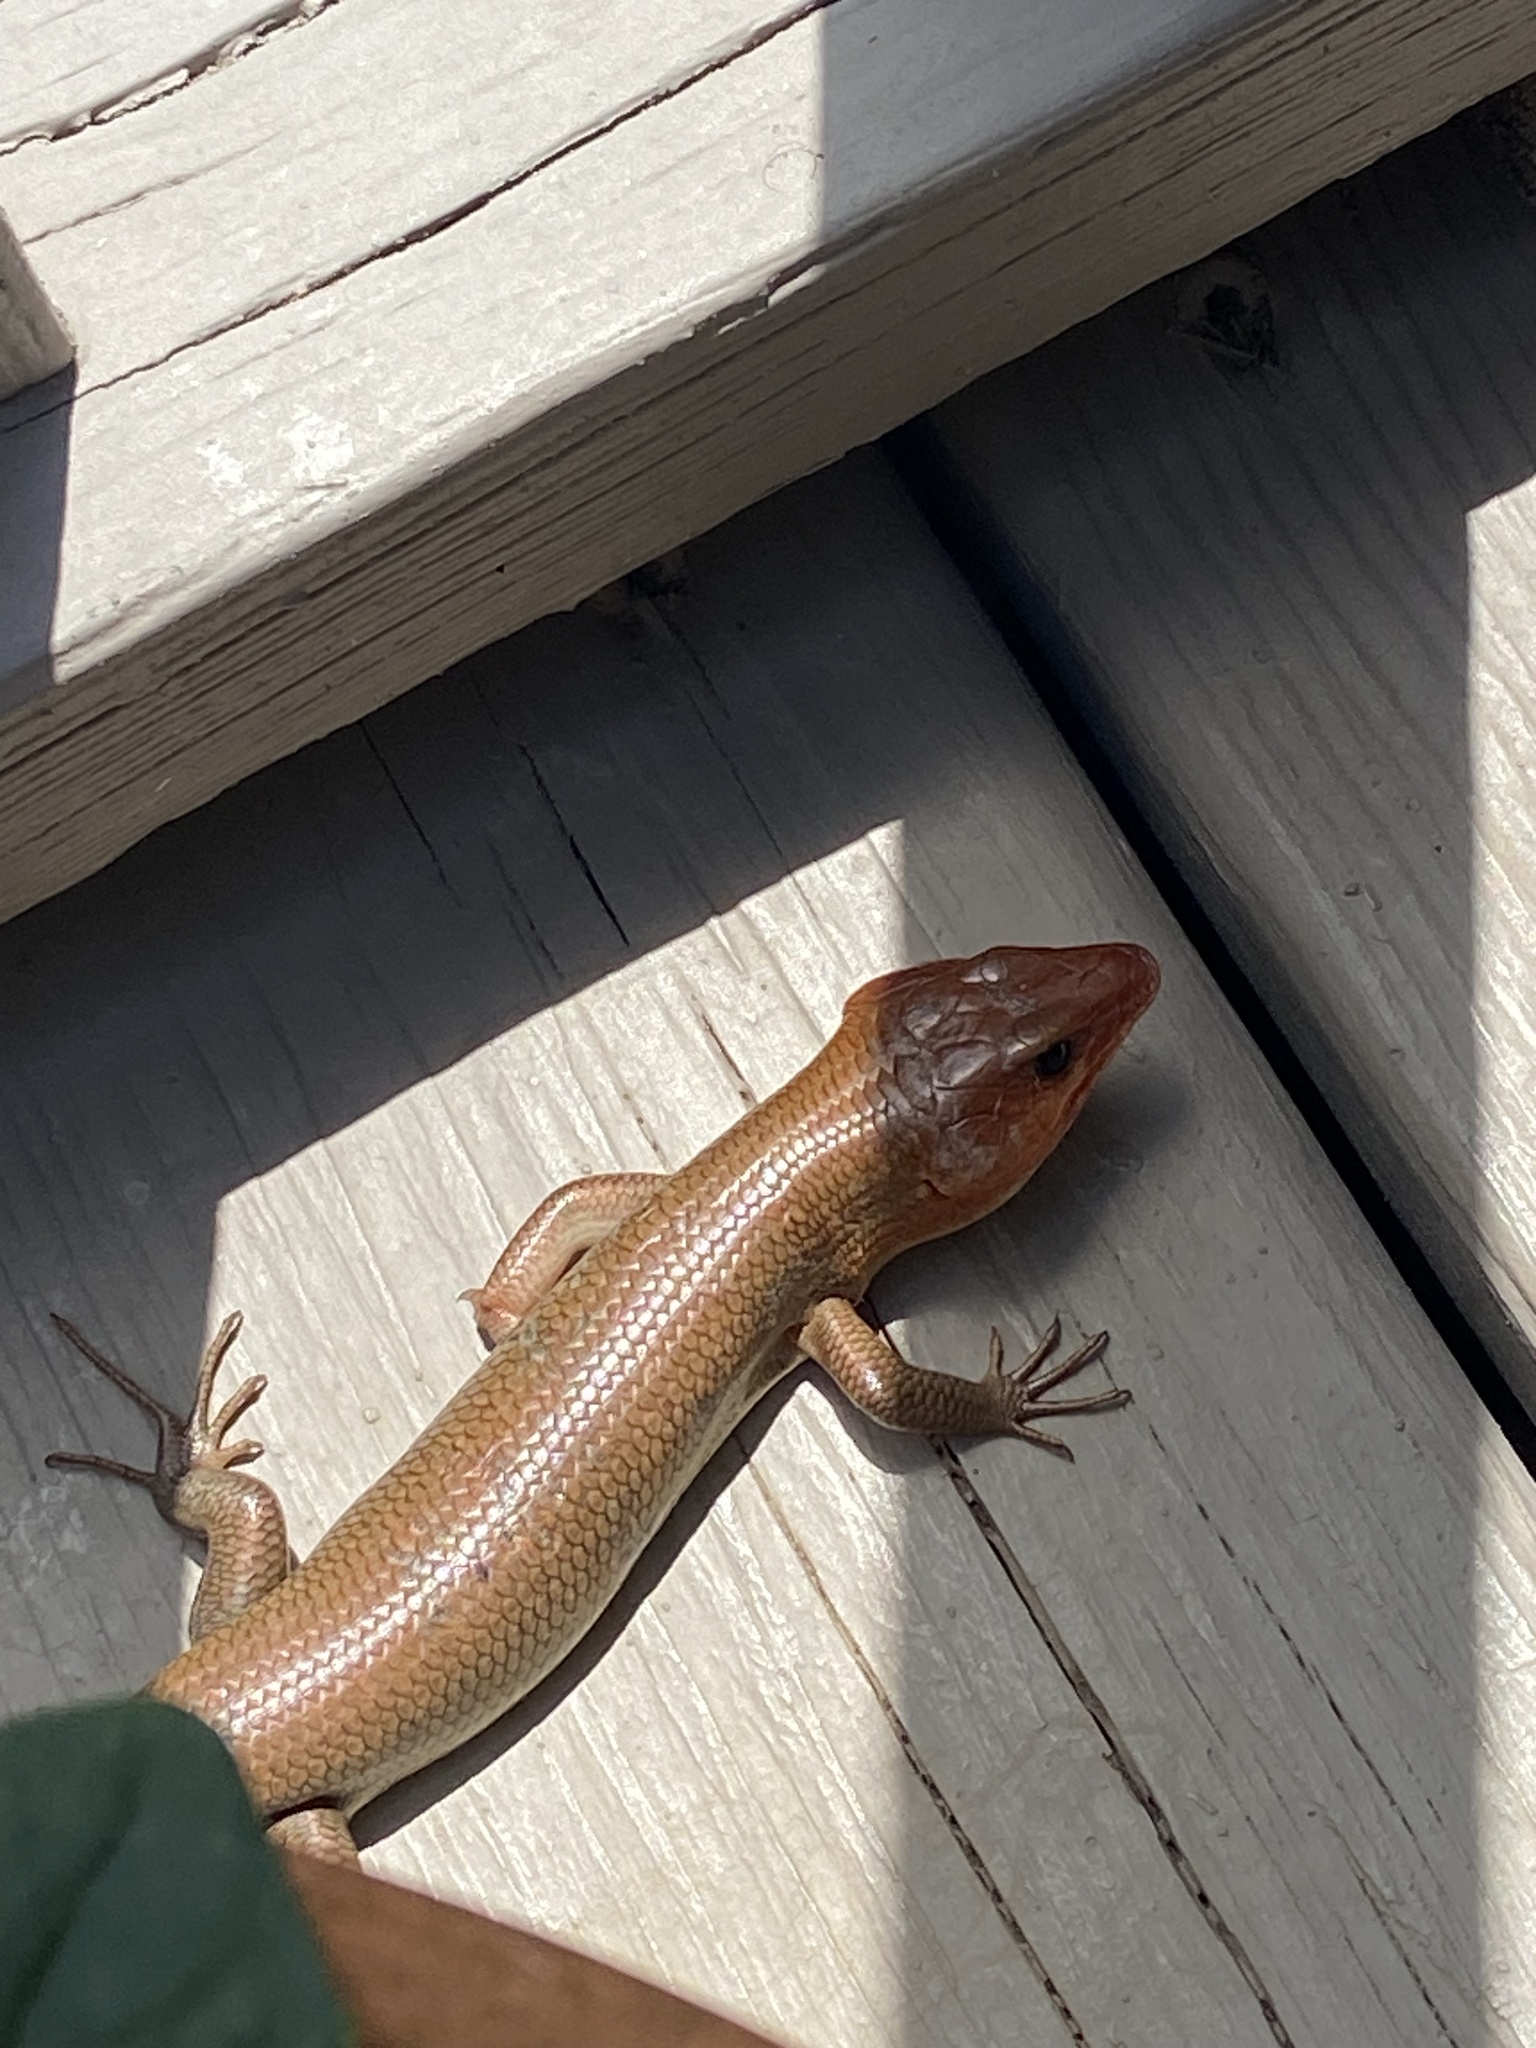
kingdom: Animalia
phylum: Chordata
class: Squamata
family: Scincidae
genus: Plestiodon
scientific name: Plestiodon laticeps
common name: Broadhead skink
